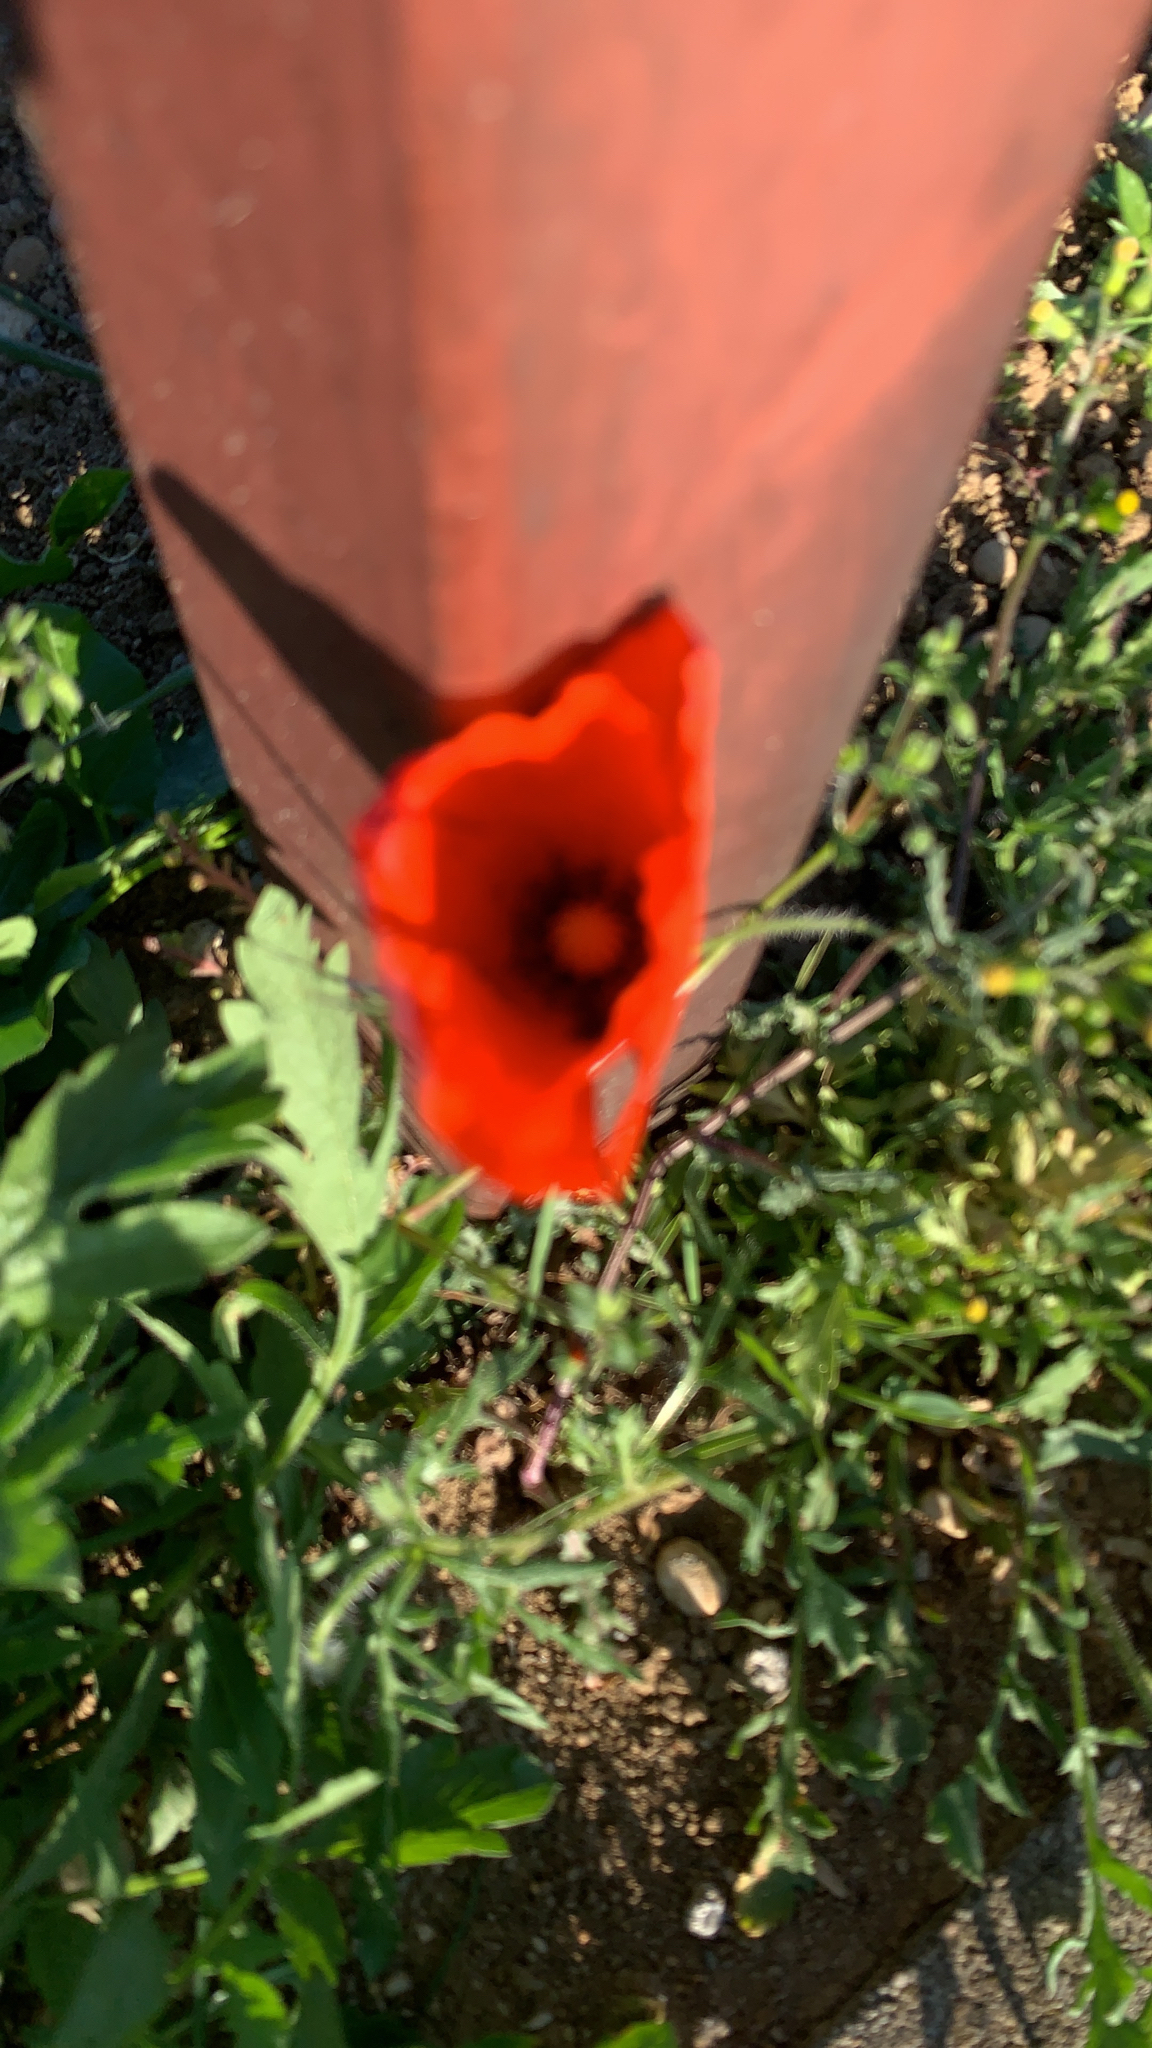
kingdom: Plantae
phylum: Tracheophyta
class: Magnoliopsida
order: Ranunculales
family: Papaveraceae
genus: Papaver
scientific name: Papaver rhoeas
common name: Corn poppy
